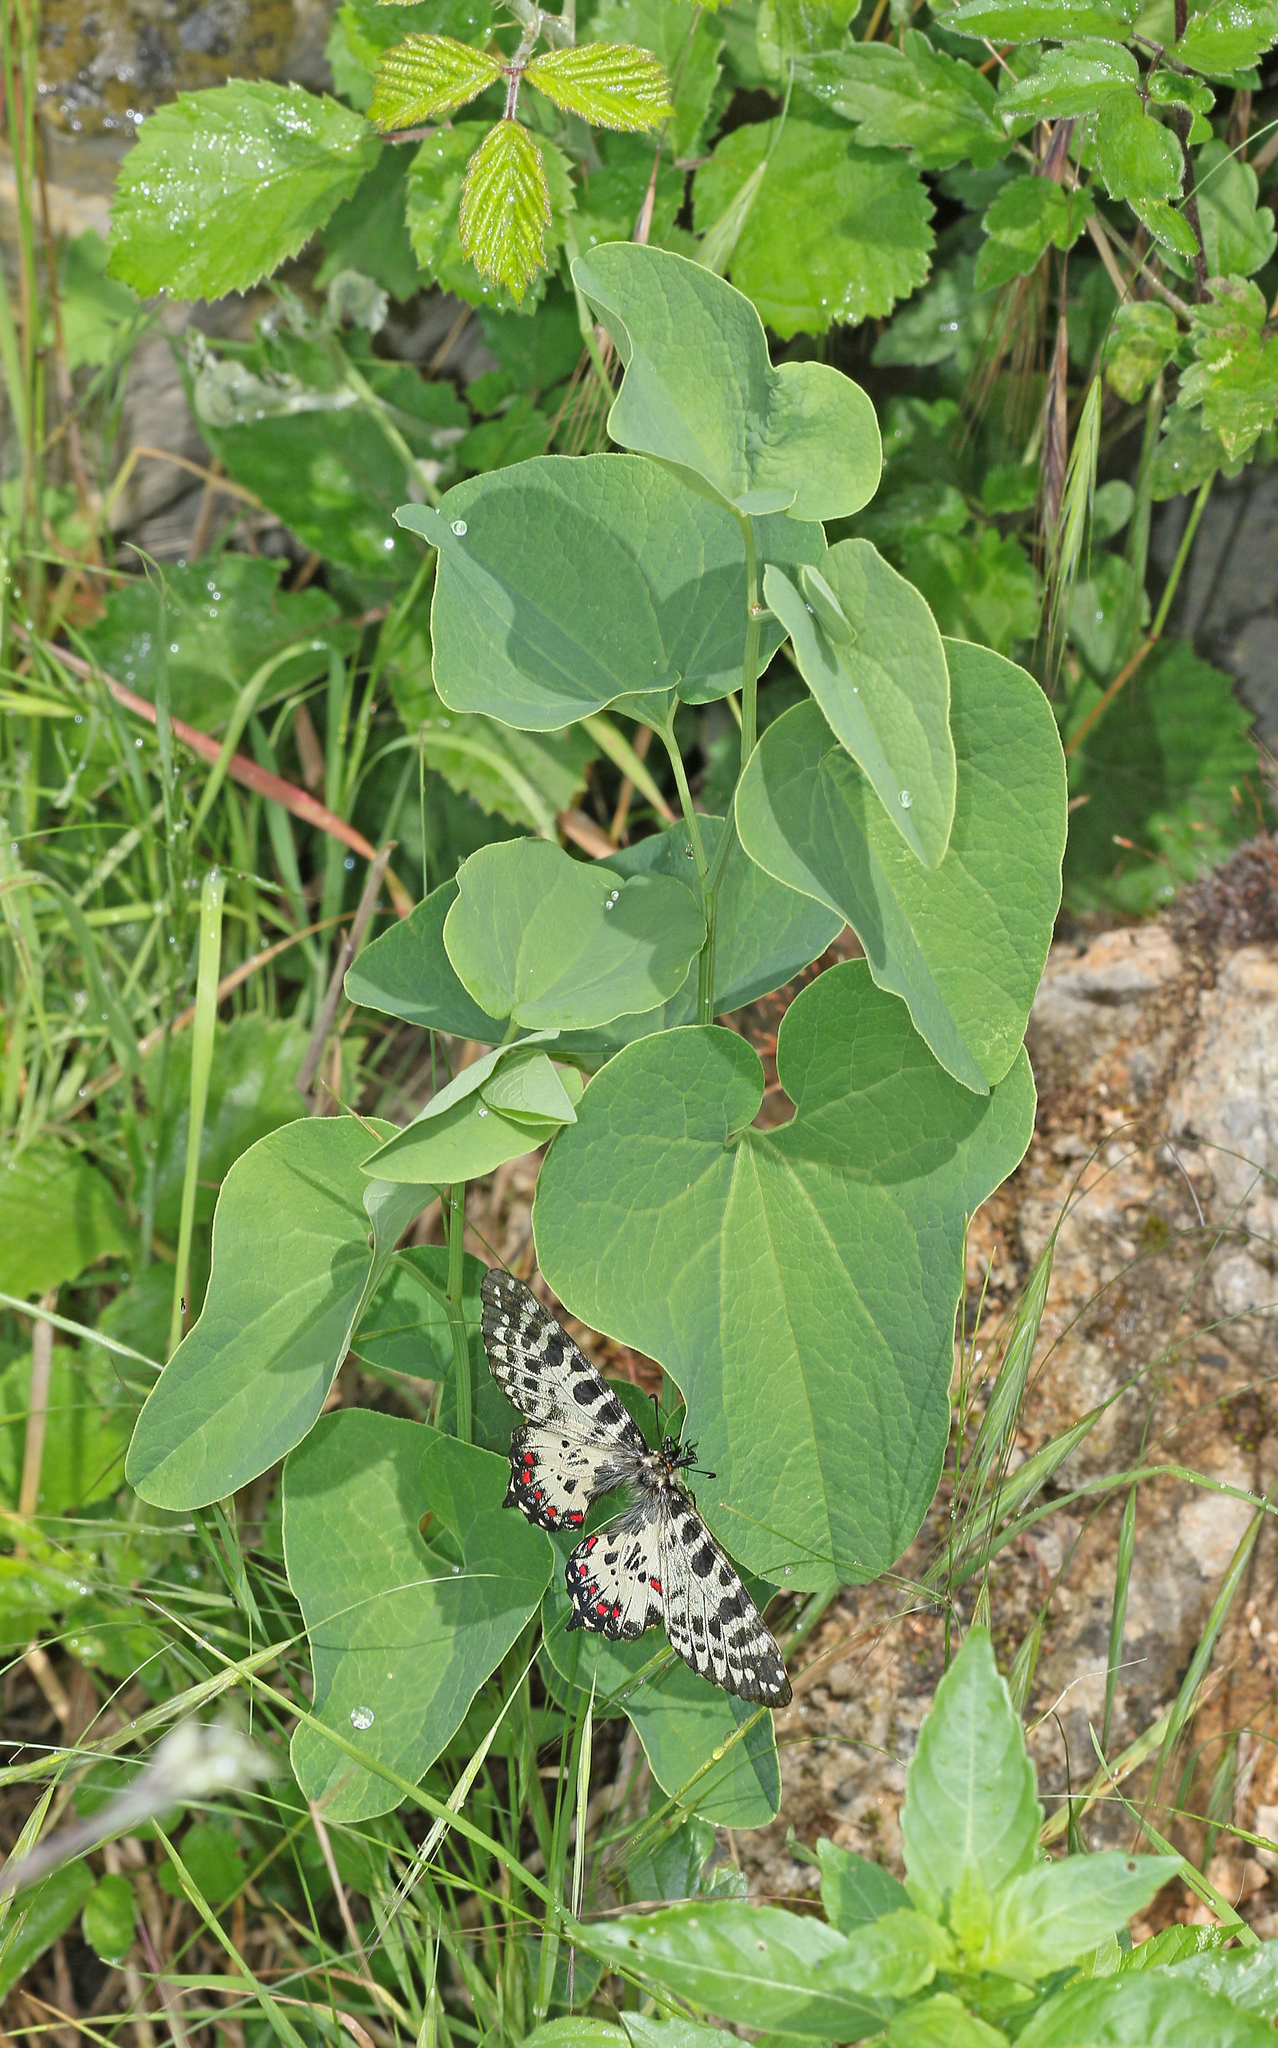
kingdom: Animalia
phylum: Arthropoda
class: Insecta
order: Lepidoptera
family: Papilionidae
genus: Zerynthia
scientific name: Zerynthia cerisy
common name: Eastern festoon
